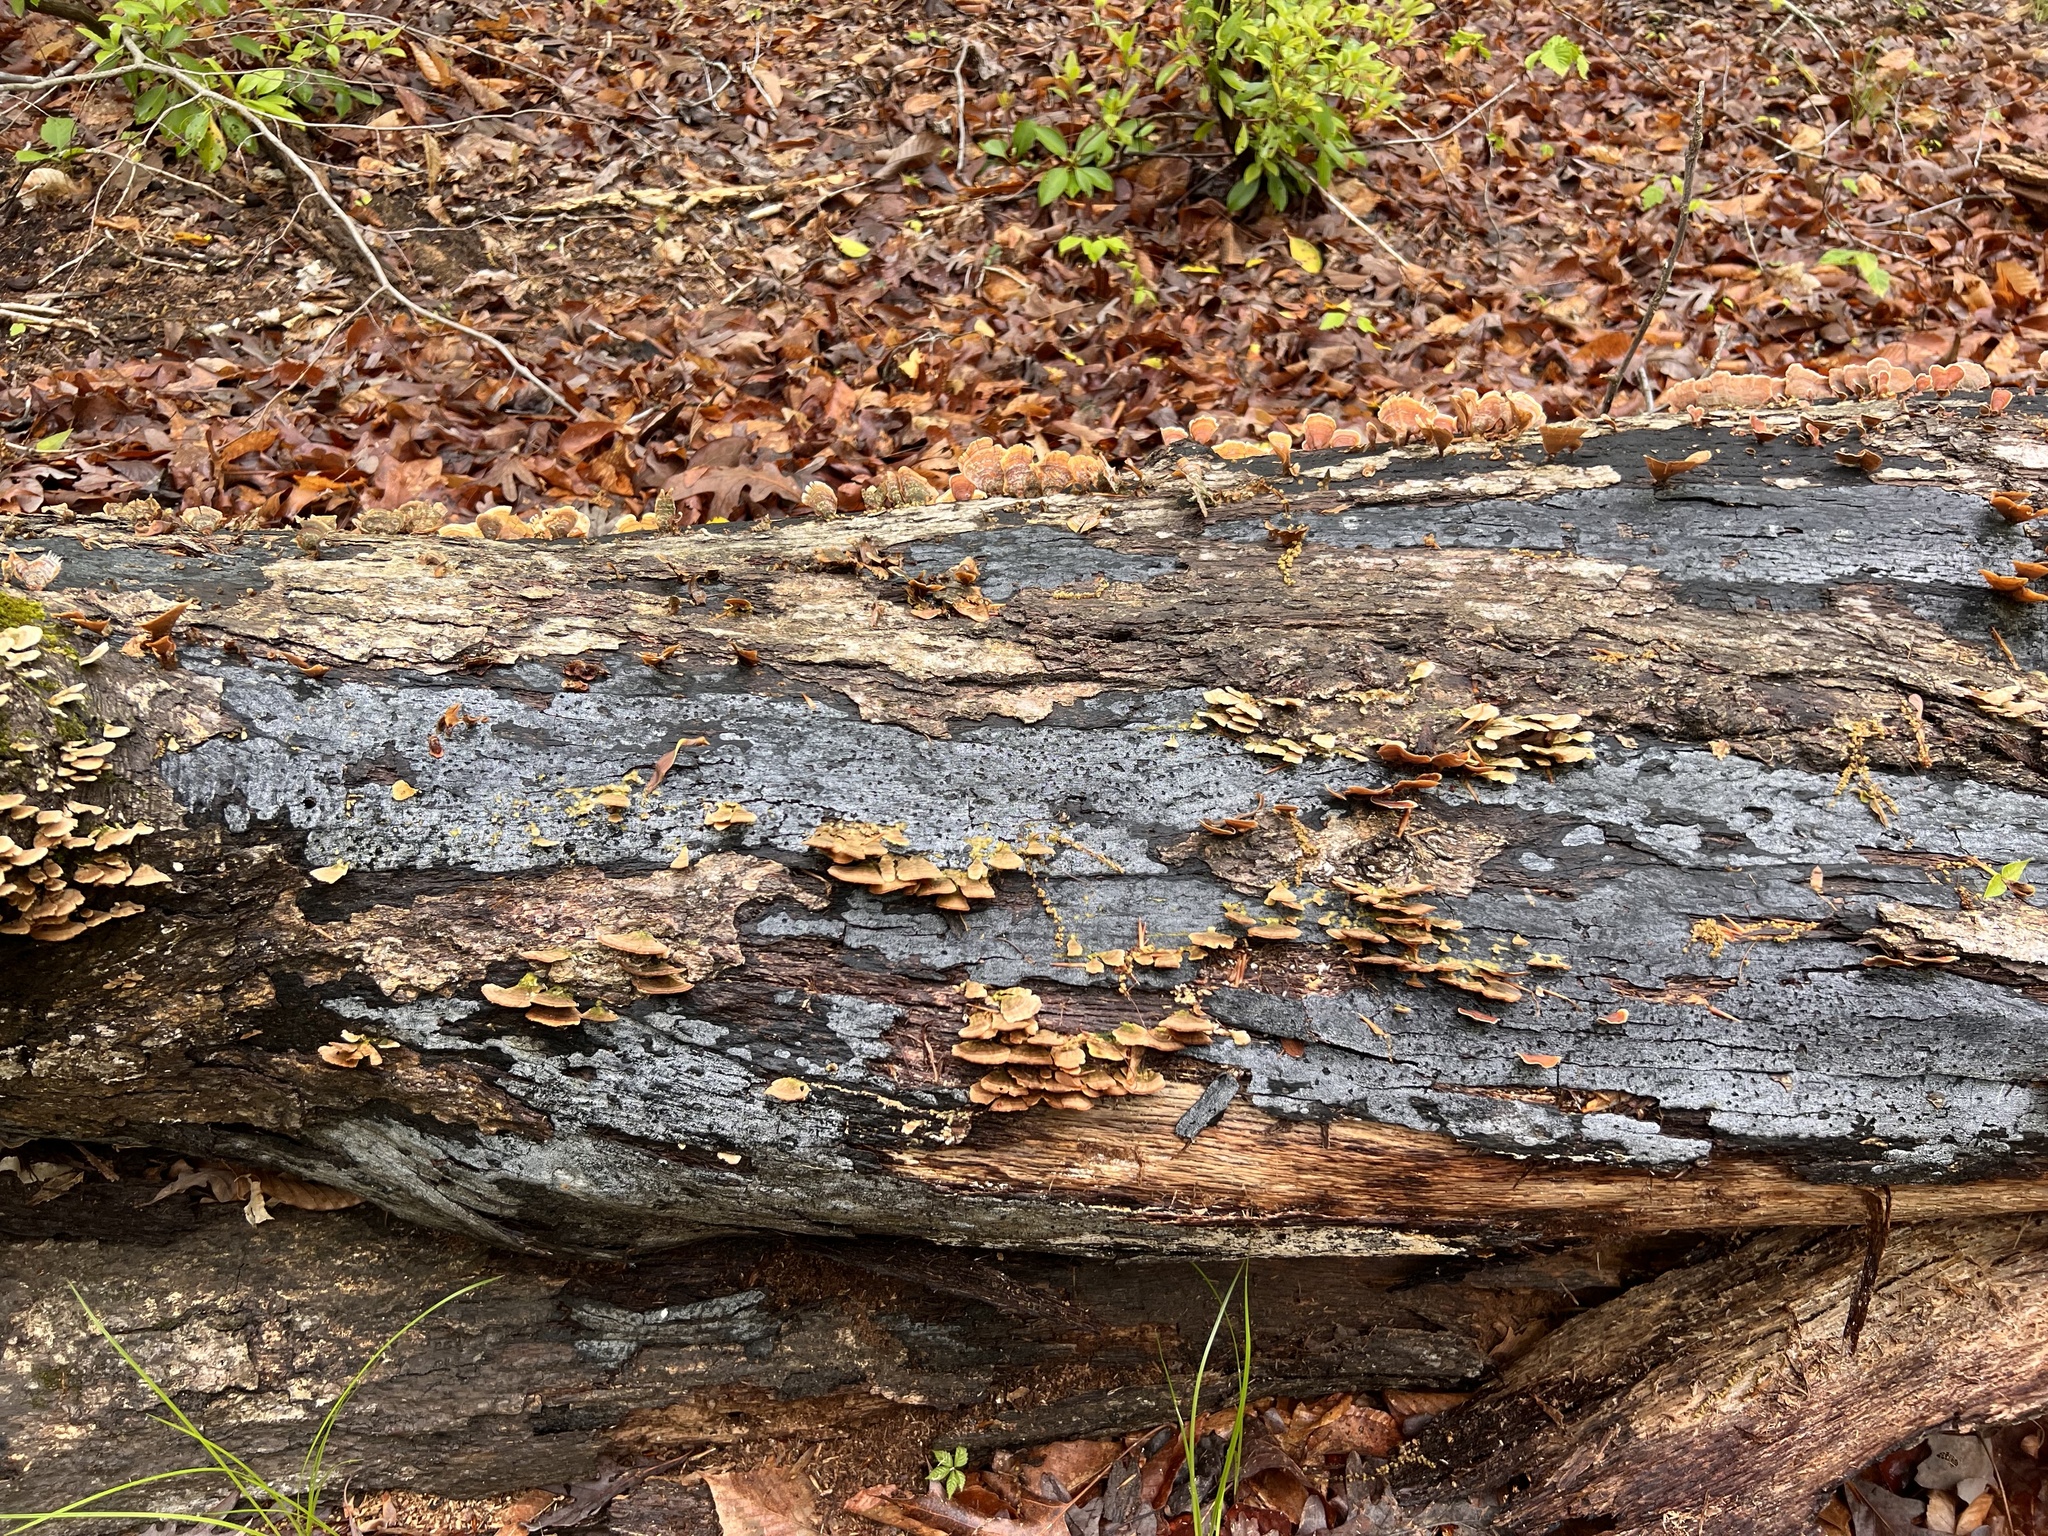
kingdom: Fungi
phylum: Ascomycota
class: Sordariomycetes
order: Xylariales
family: Graphostromataceae
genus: Biscogniauxia
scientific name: Biscogniauxia atropunctata
